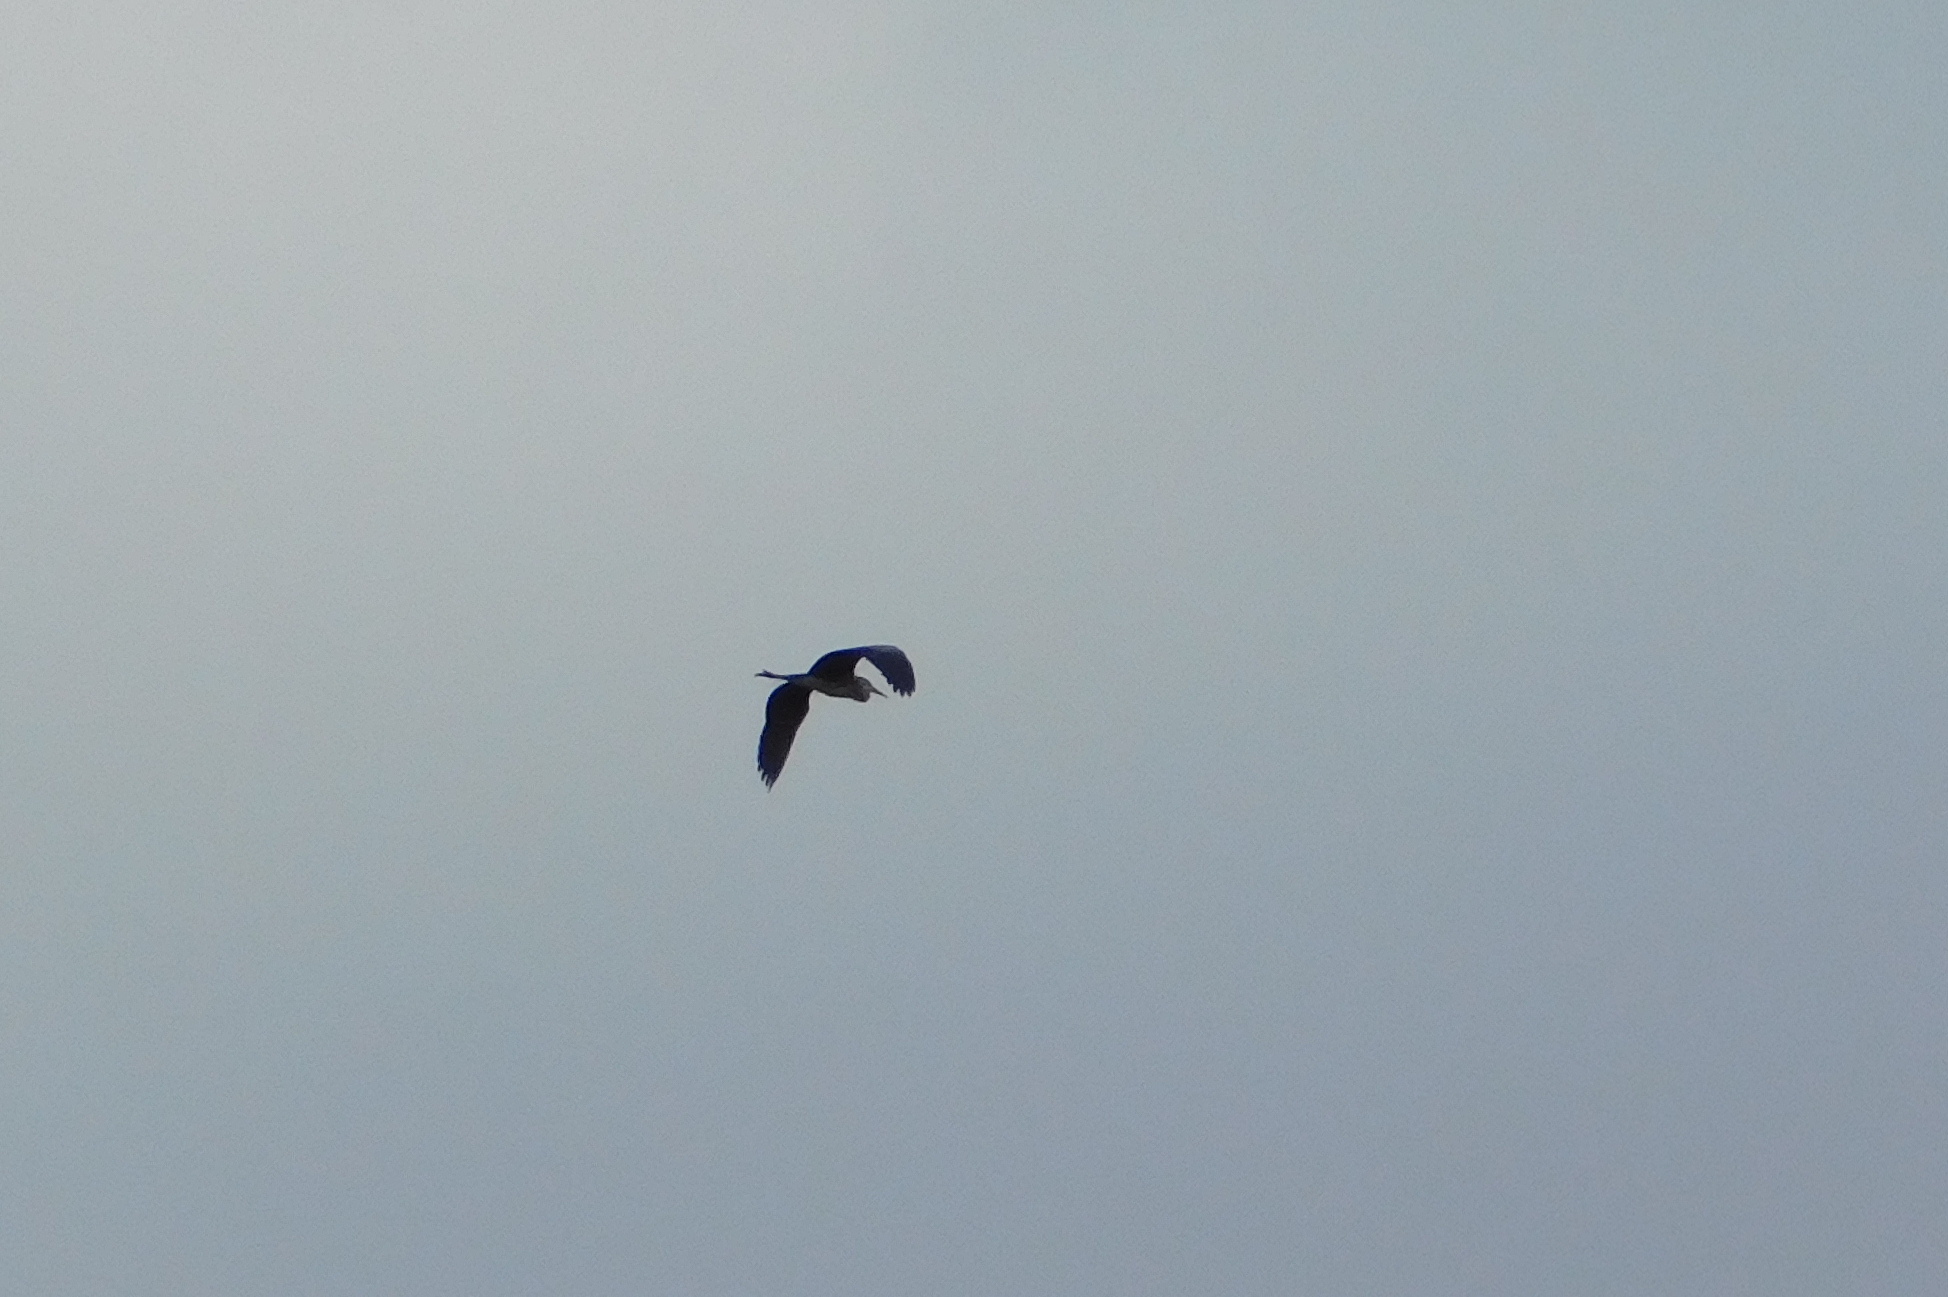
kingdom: Animalia
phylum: Chordata
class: Aves
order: Pelecaniformes
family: Ardeidae
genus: Ardea
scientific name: Ardea cinerea
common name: Grey heron
